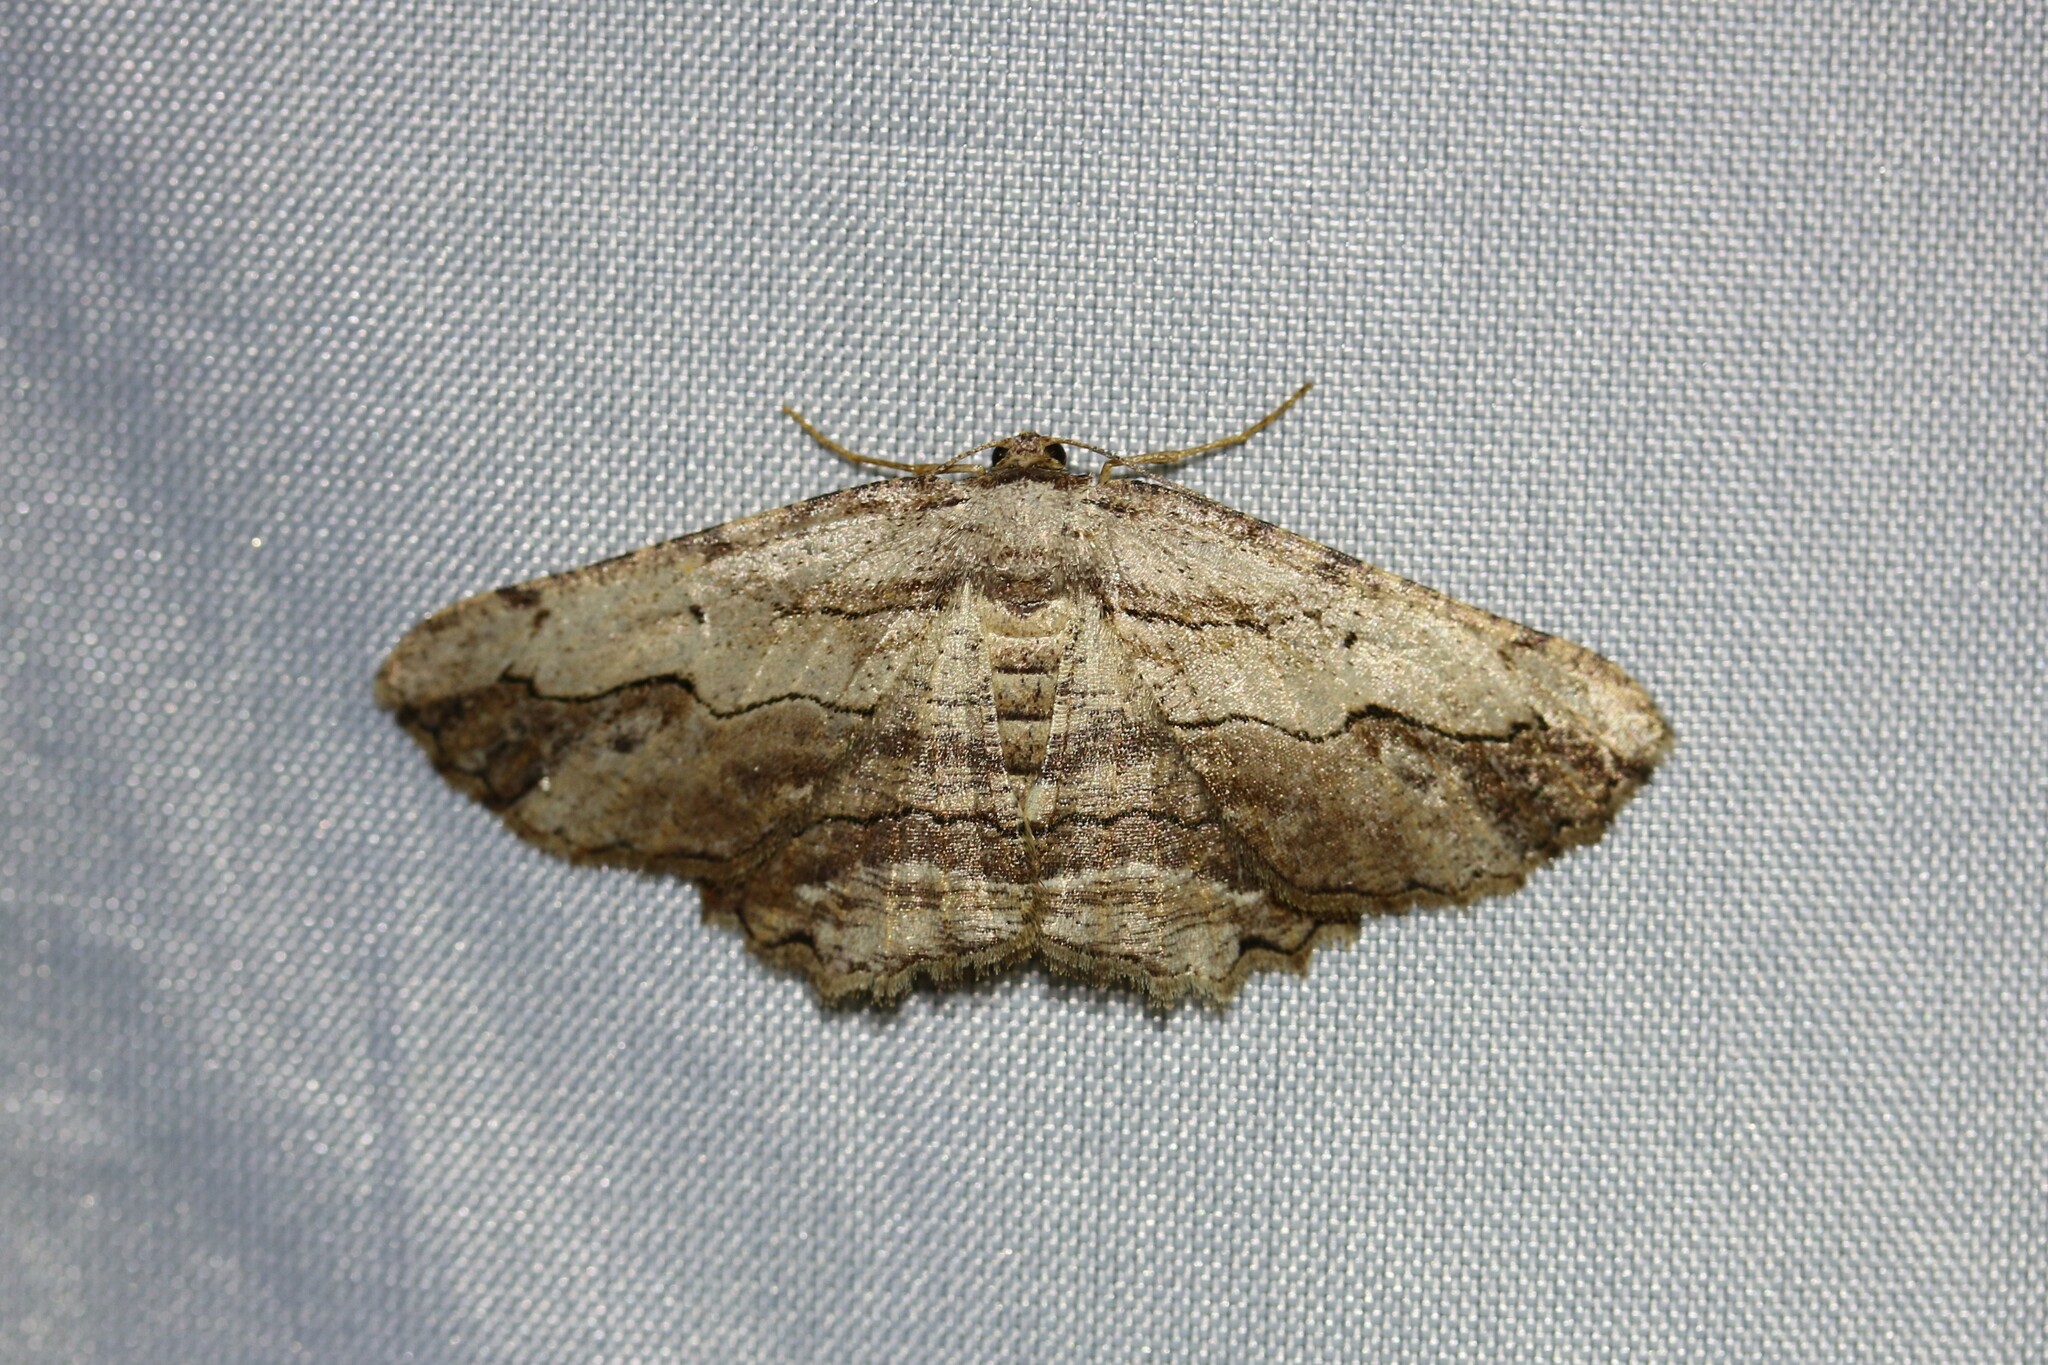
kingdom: Animalia
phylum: Arthropoda
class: Insecta
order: Lepidoptera
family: Geometridae
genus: Menophra
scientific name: Menophra abruptaria
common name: Waved umber
